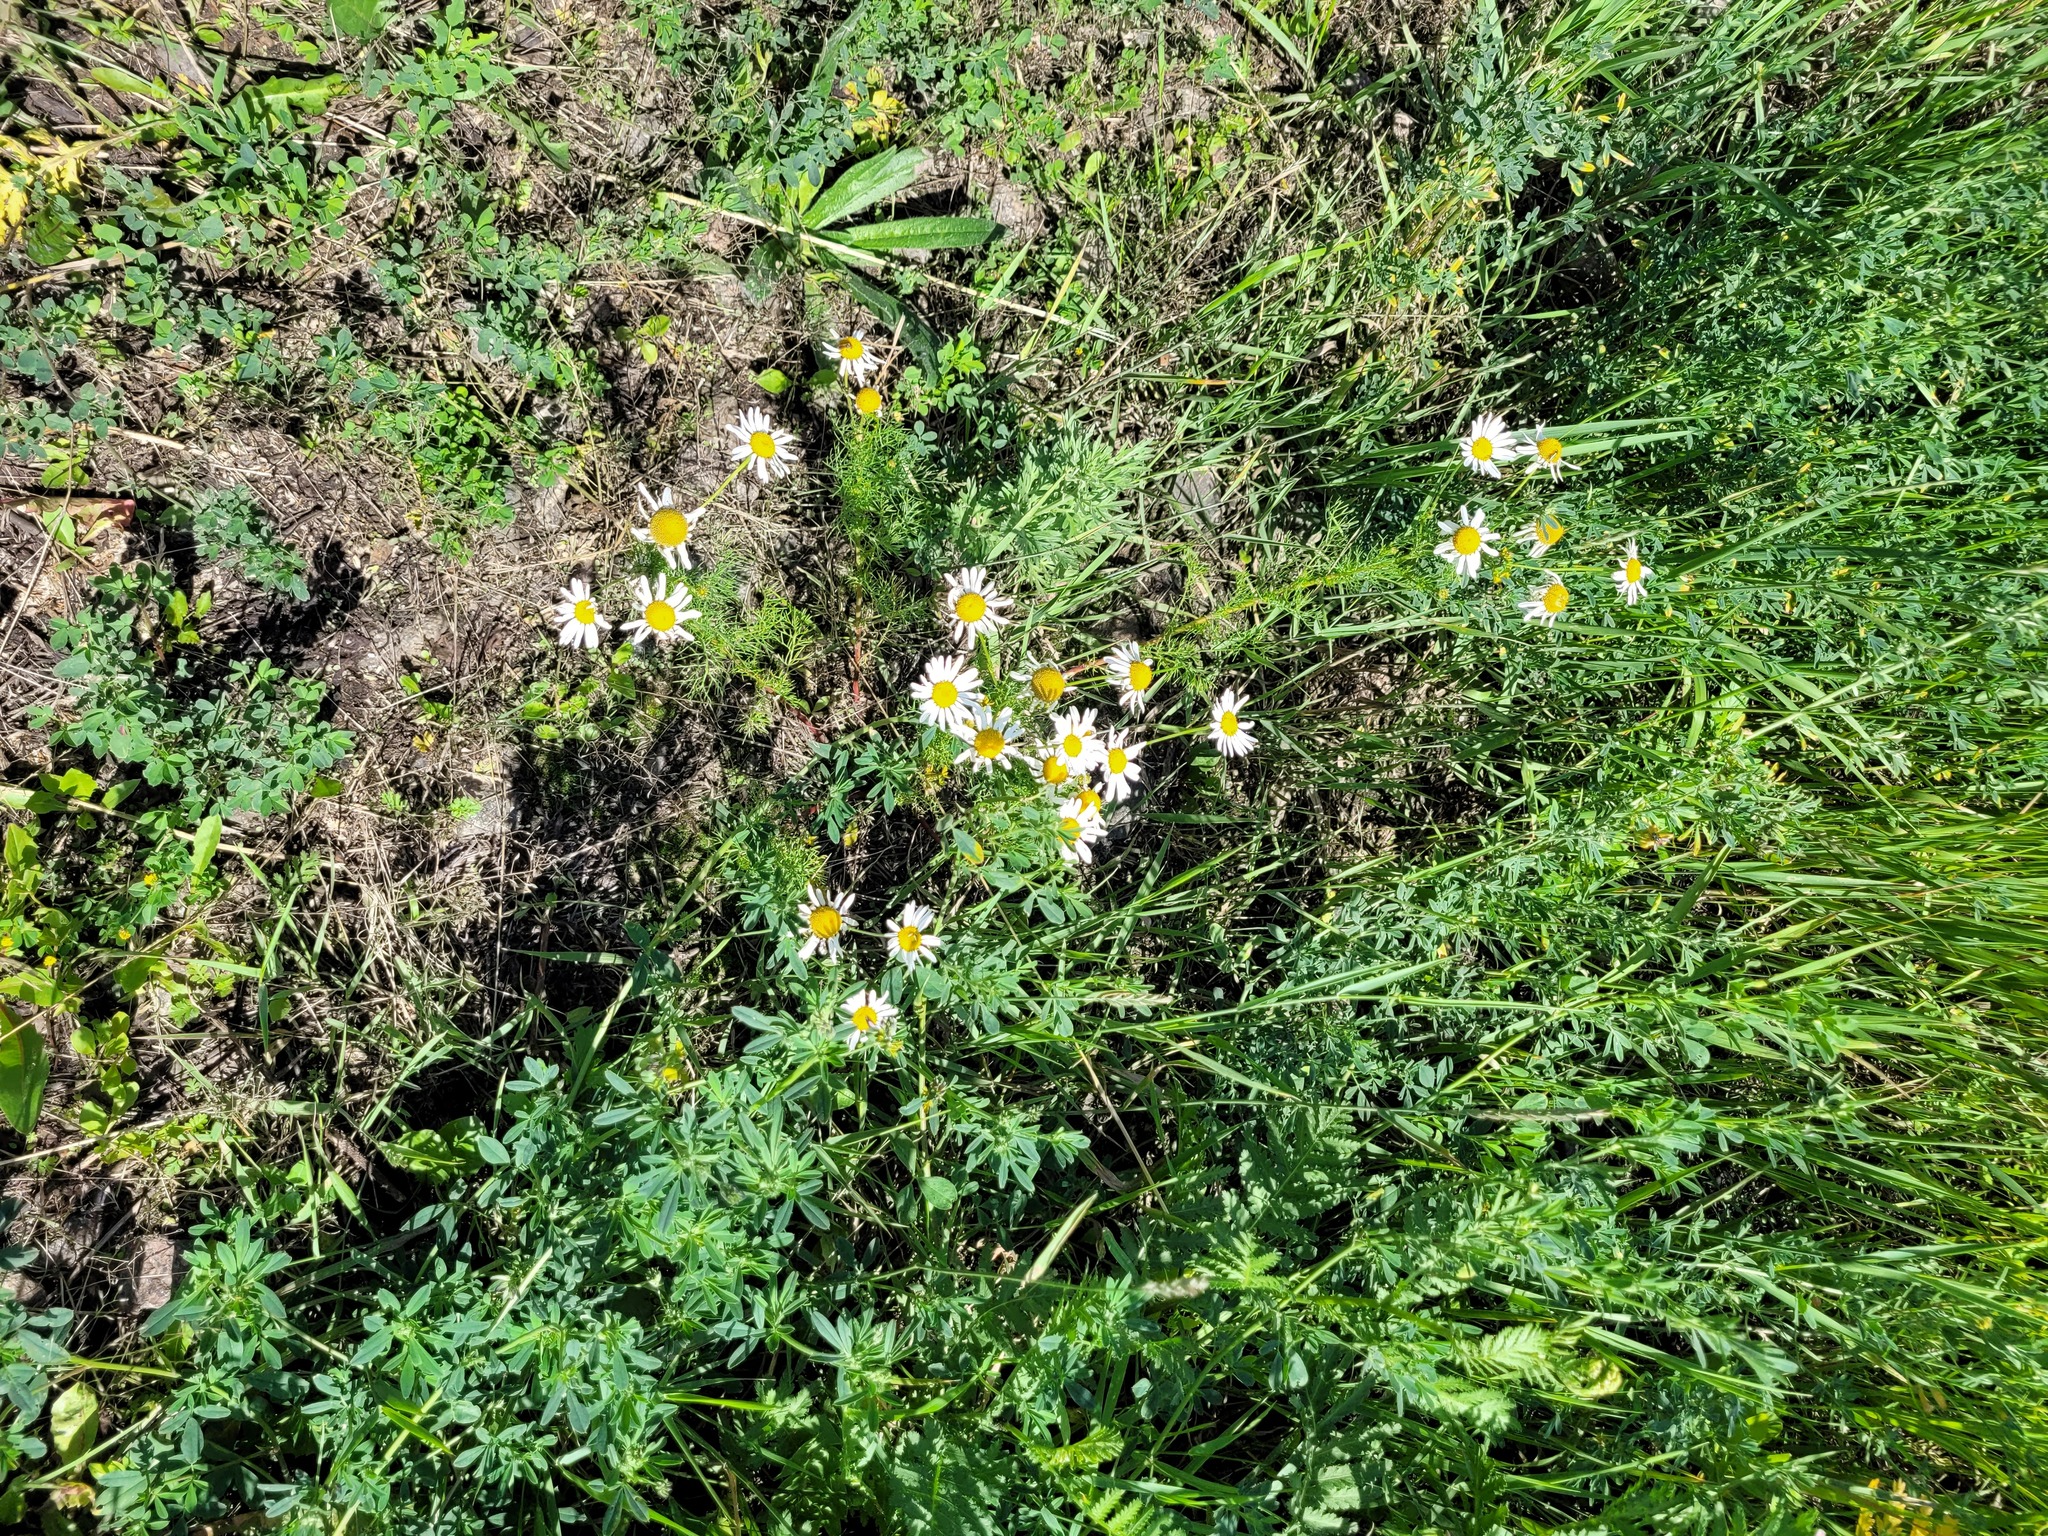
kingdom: Plantae
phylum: Tracheophyta
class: Magnoliopsida
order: Asterales
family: Asteraceae
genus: Tripleurospermum
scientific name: Tripleurospermum inodorum
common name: Scentless mayweed
